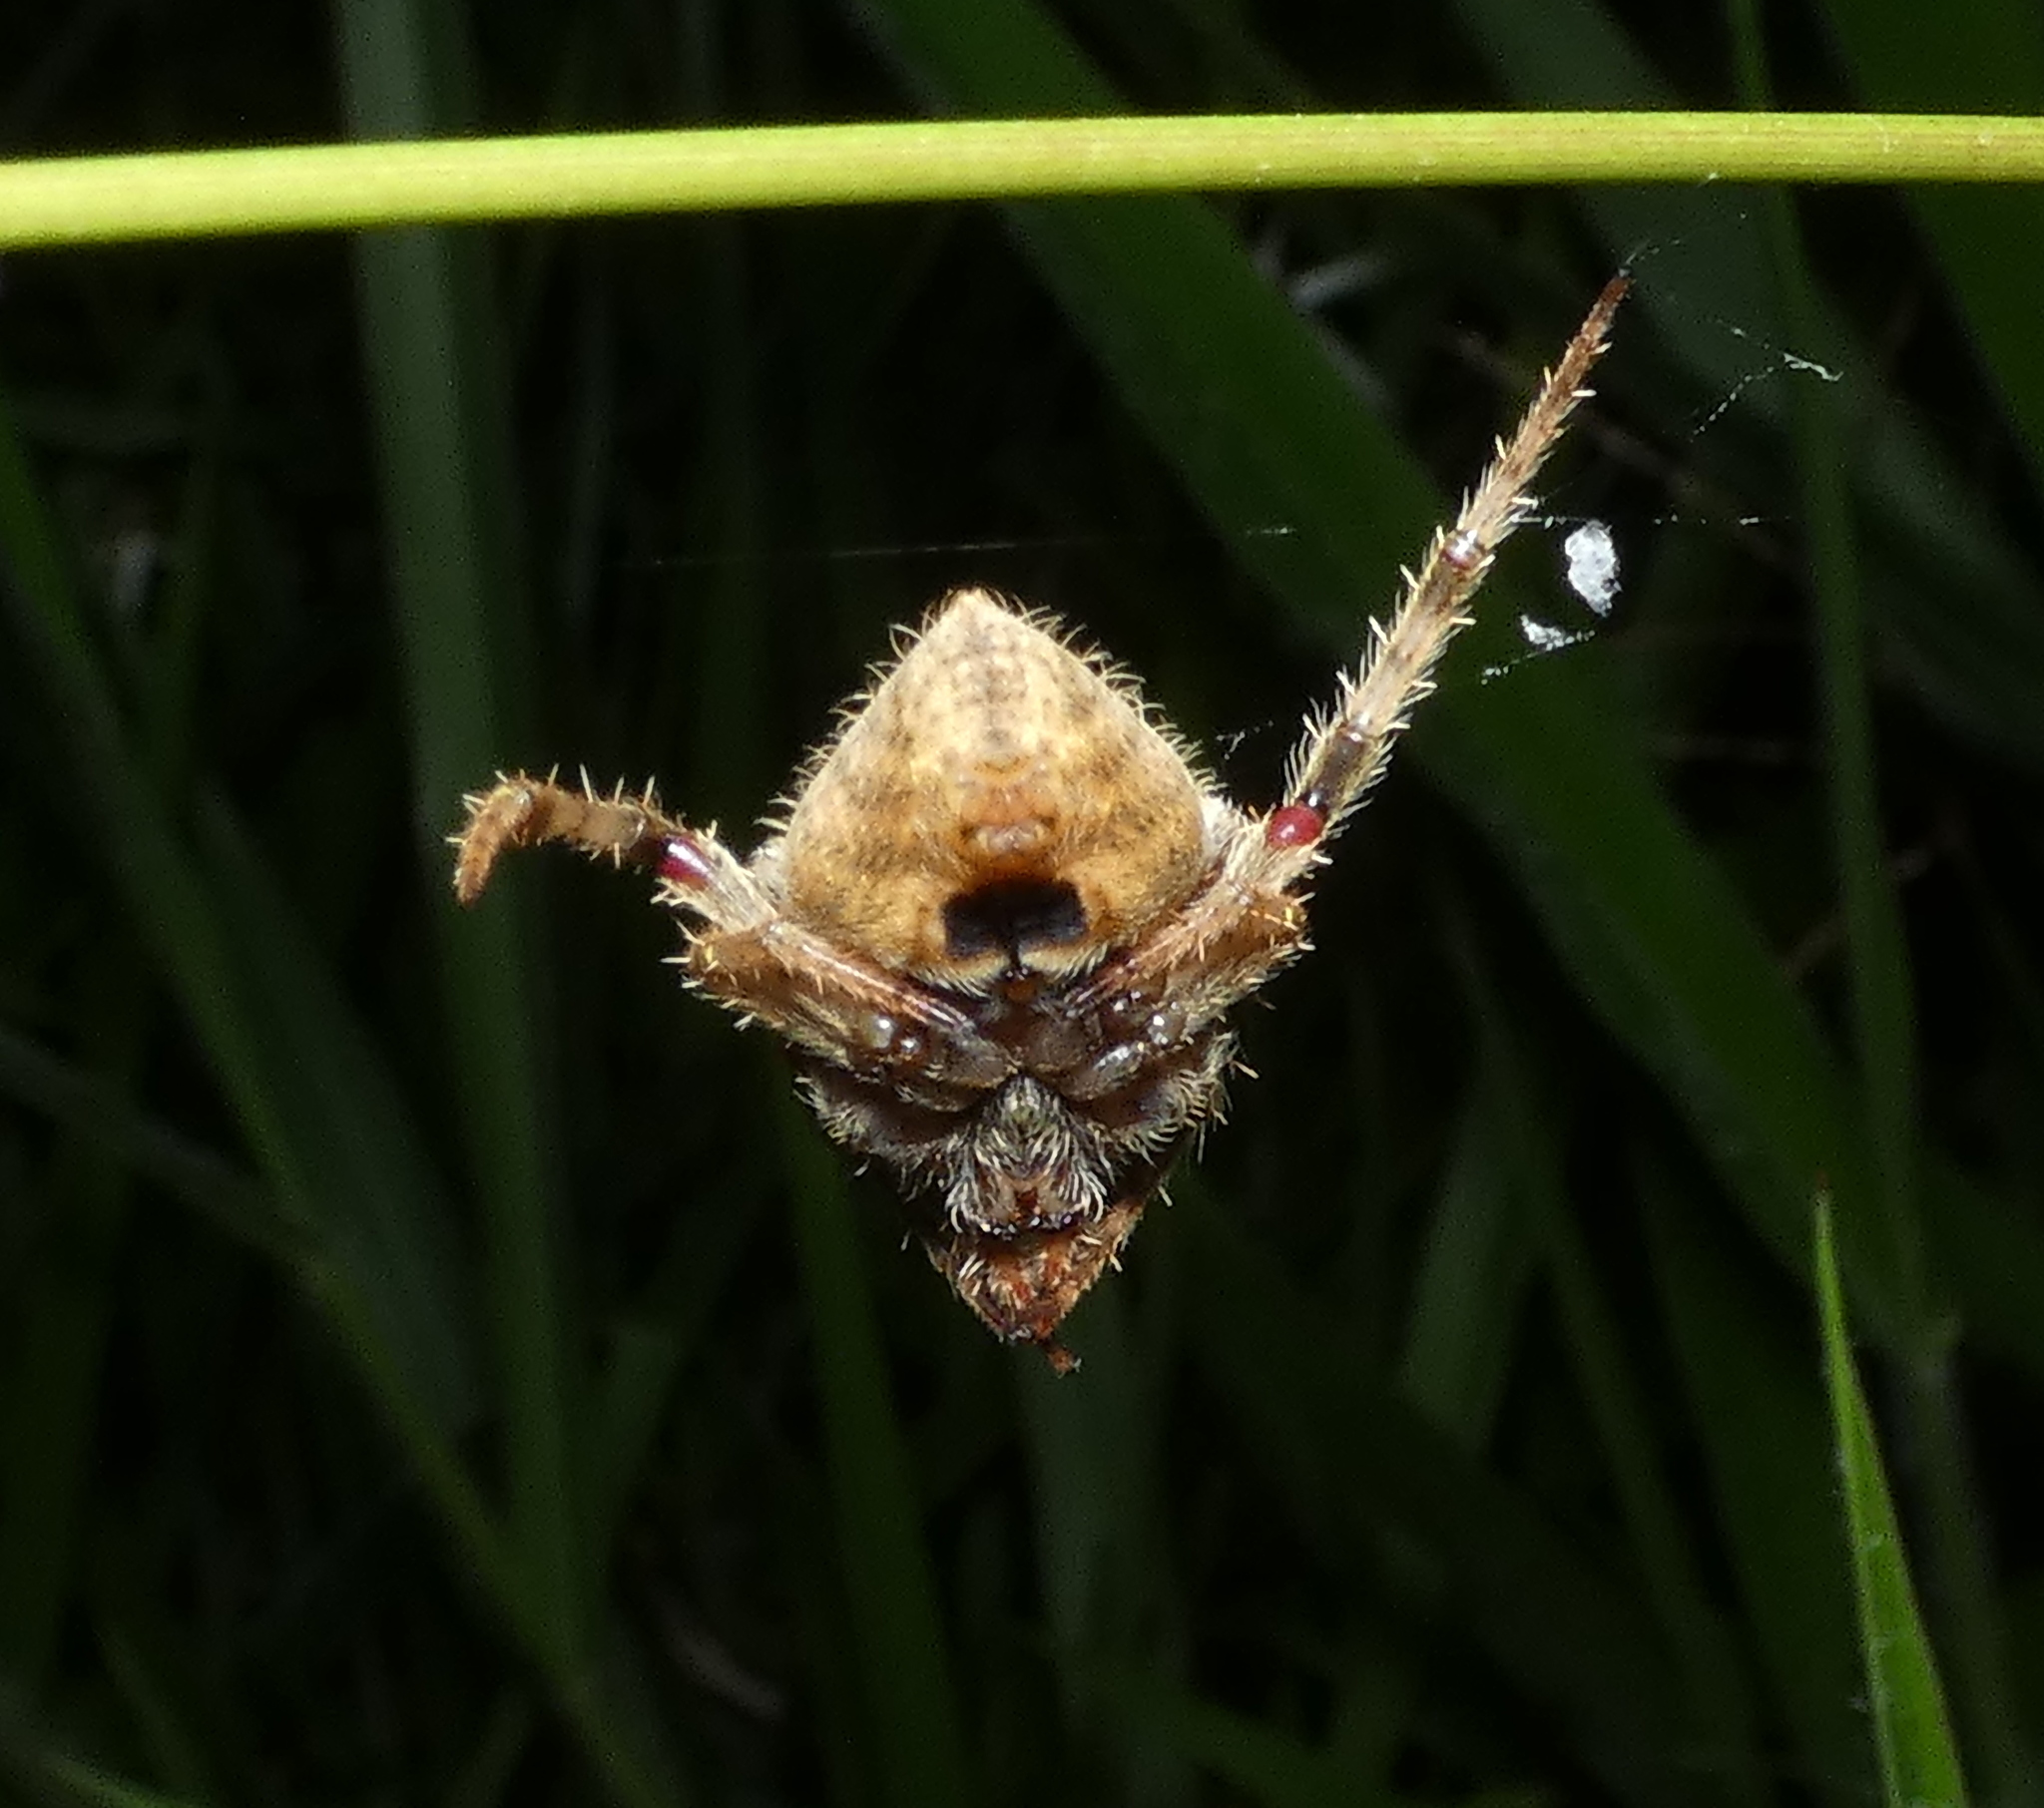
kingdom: Animalia
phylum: Arthropoda
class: Arachnida
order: Araneae
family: Araneidae
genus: Eriophora
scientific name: Eriophora edax
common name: Orb weavers
